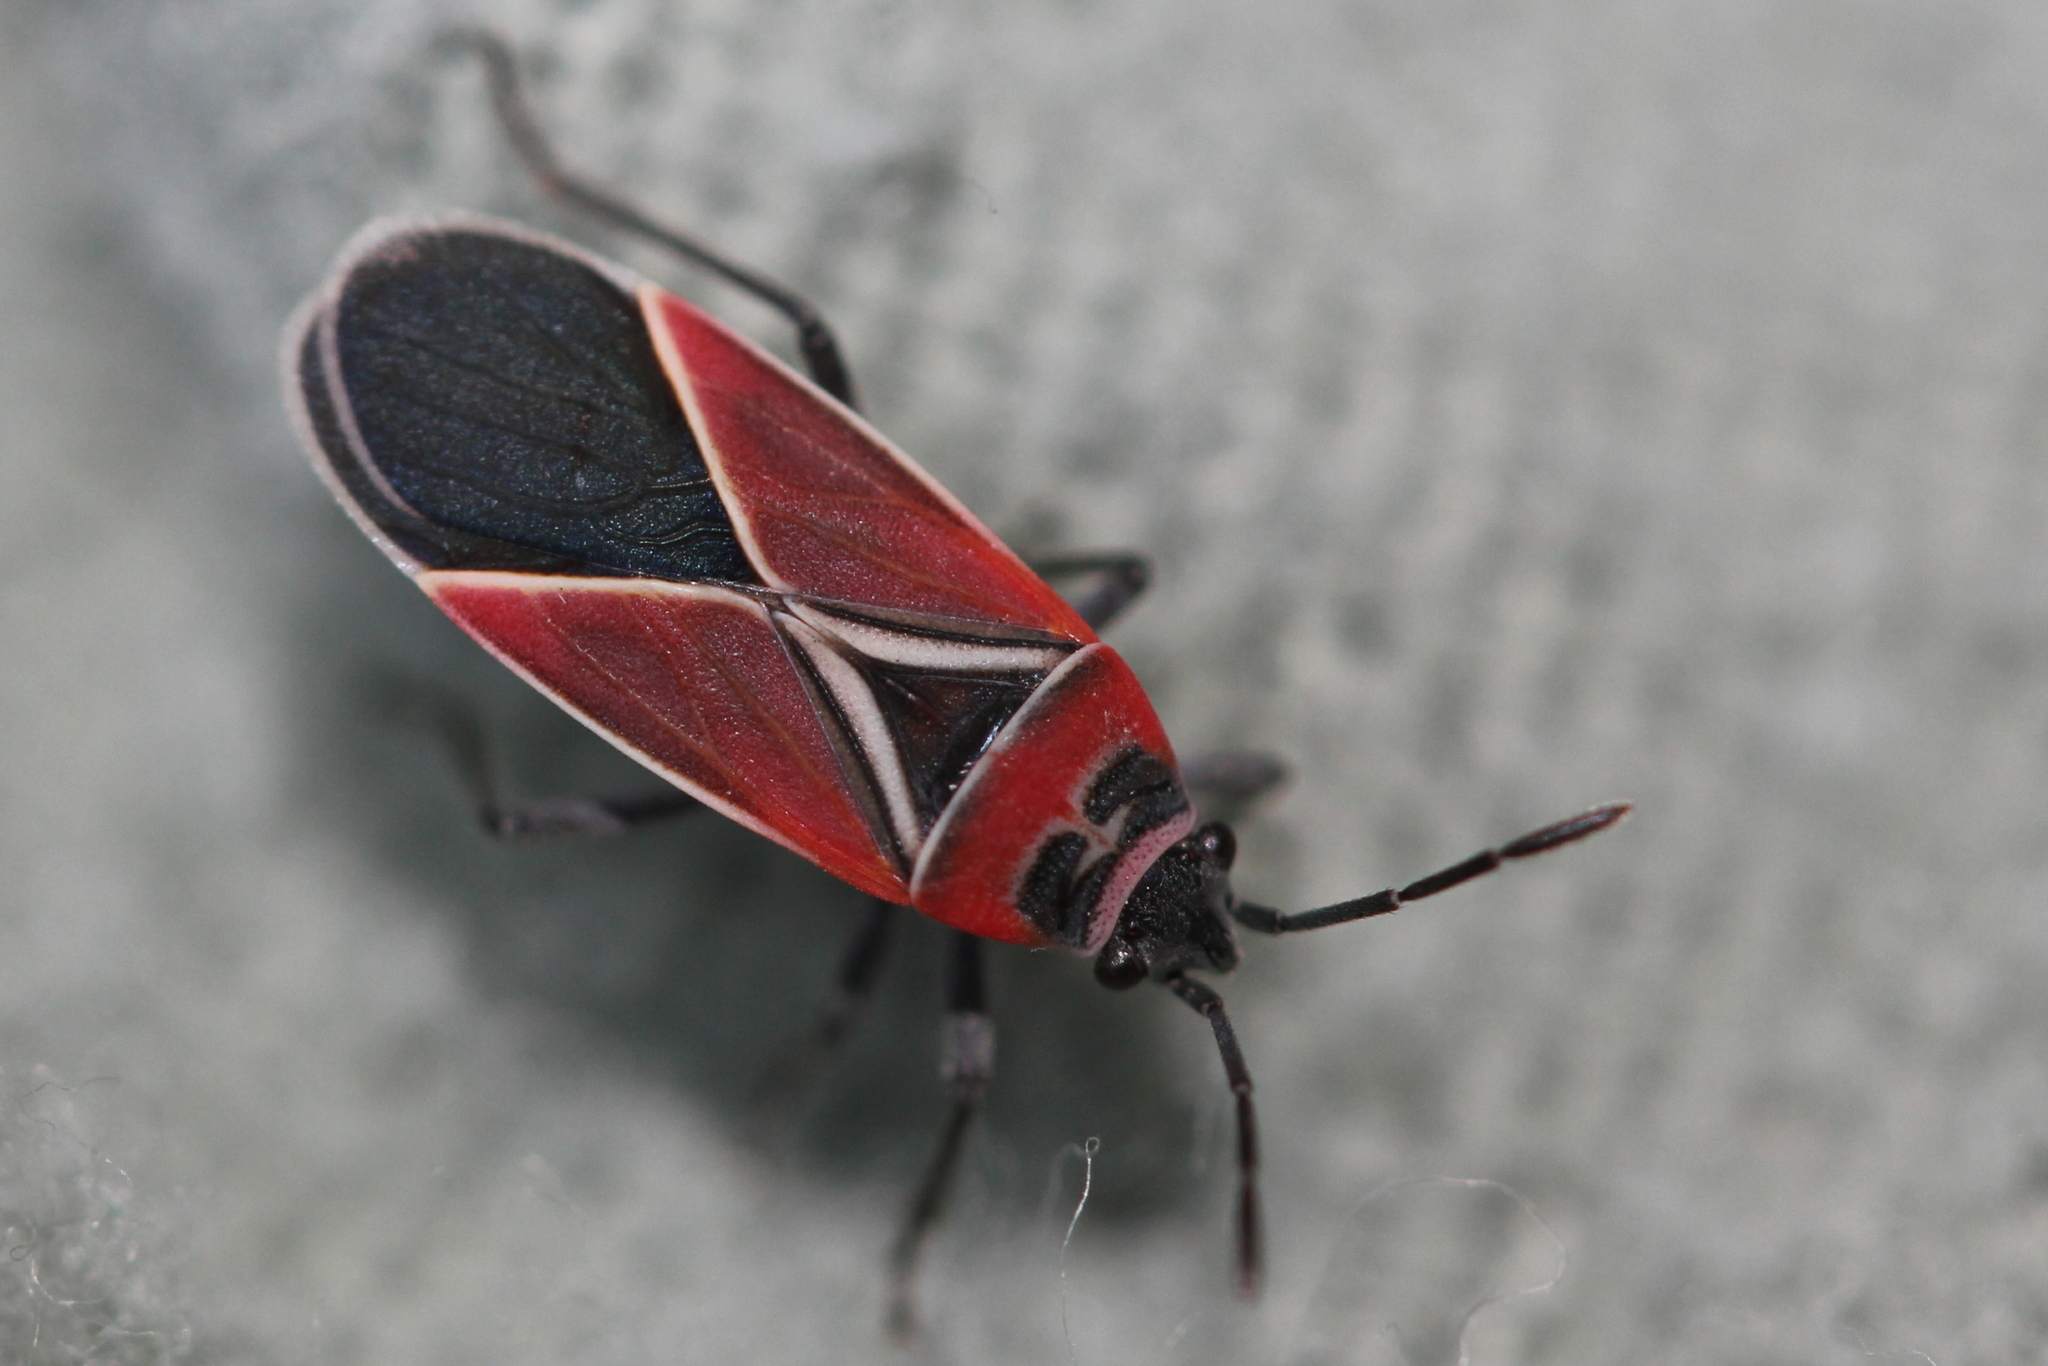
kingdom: Animalia
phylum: Arthropoda
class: Insecta
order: Hemiptera
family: Lygaeidae
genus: Neacoryphus
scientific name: Neacoryphus bicrucis
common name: Lygaeid bug
